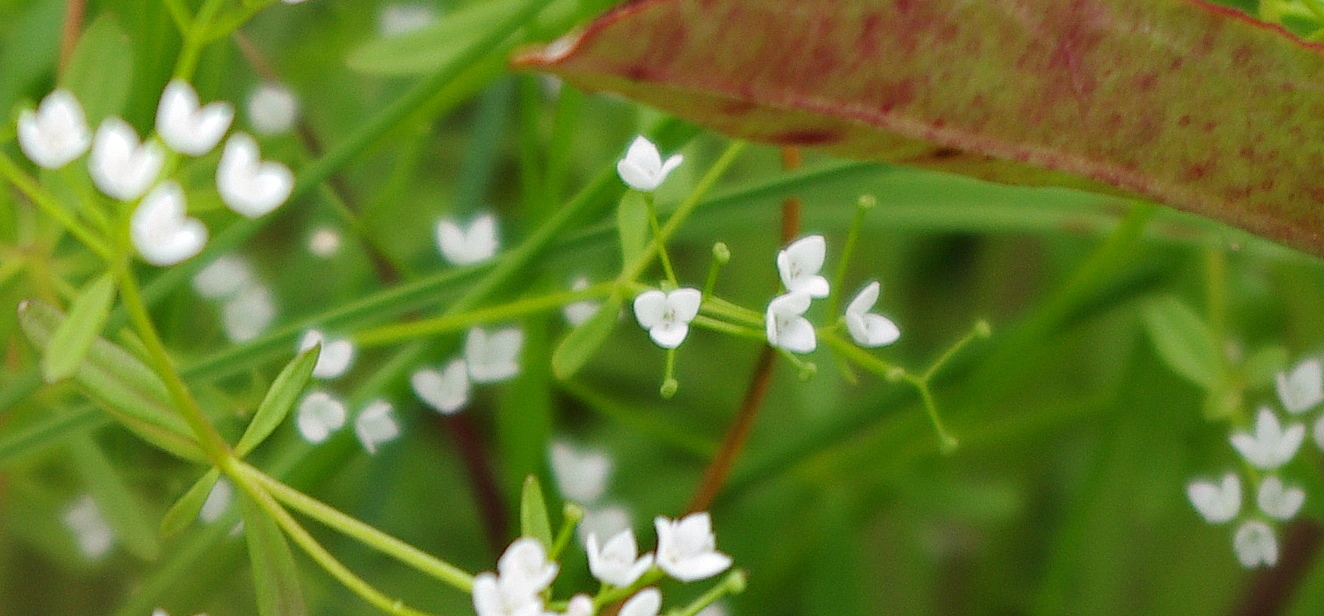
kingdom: Plantae
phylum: Tracheophyta
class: Magnoliopsida
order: Gentianales
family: Rubiaceae
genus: Galium
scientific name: Galium palustre
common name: Common marsh-bedstraw
